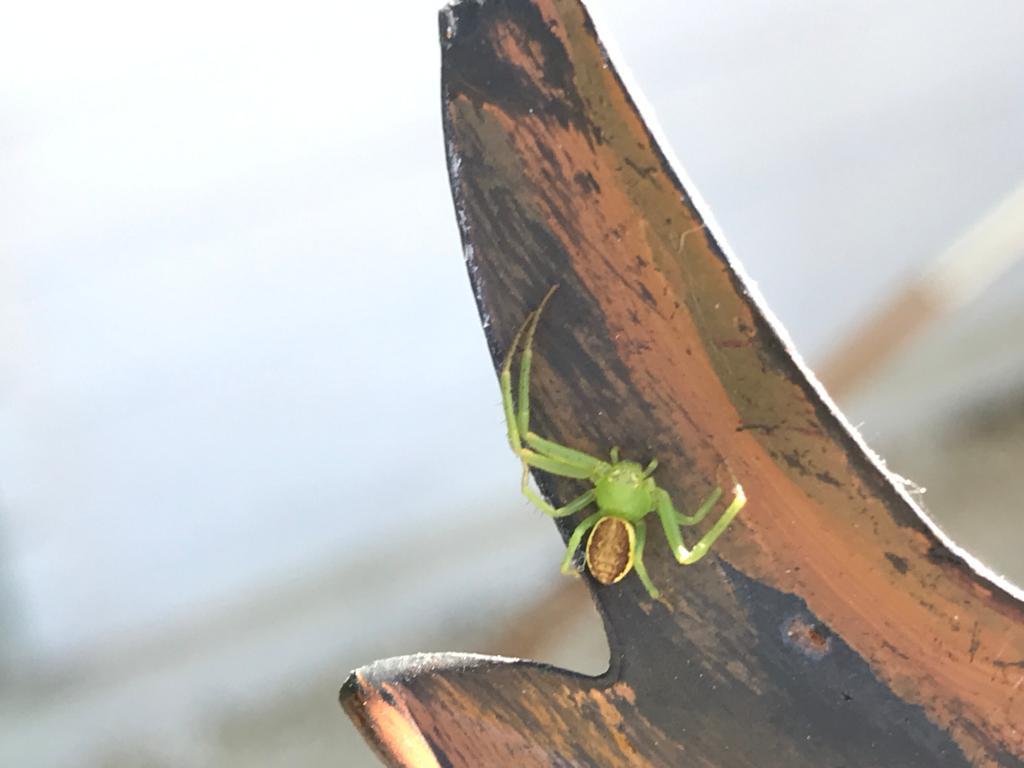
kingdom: Animalia
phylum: Arthropoda
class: Arachnida
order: Araneae
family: Thomisidae
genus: Diaea
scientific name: Diaea dorsata
